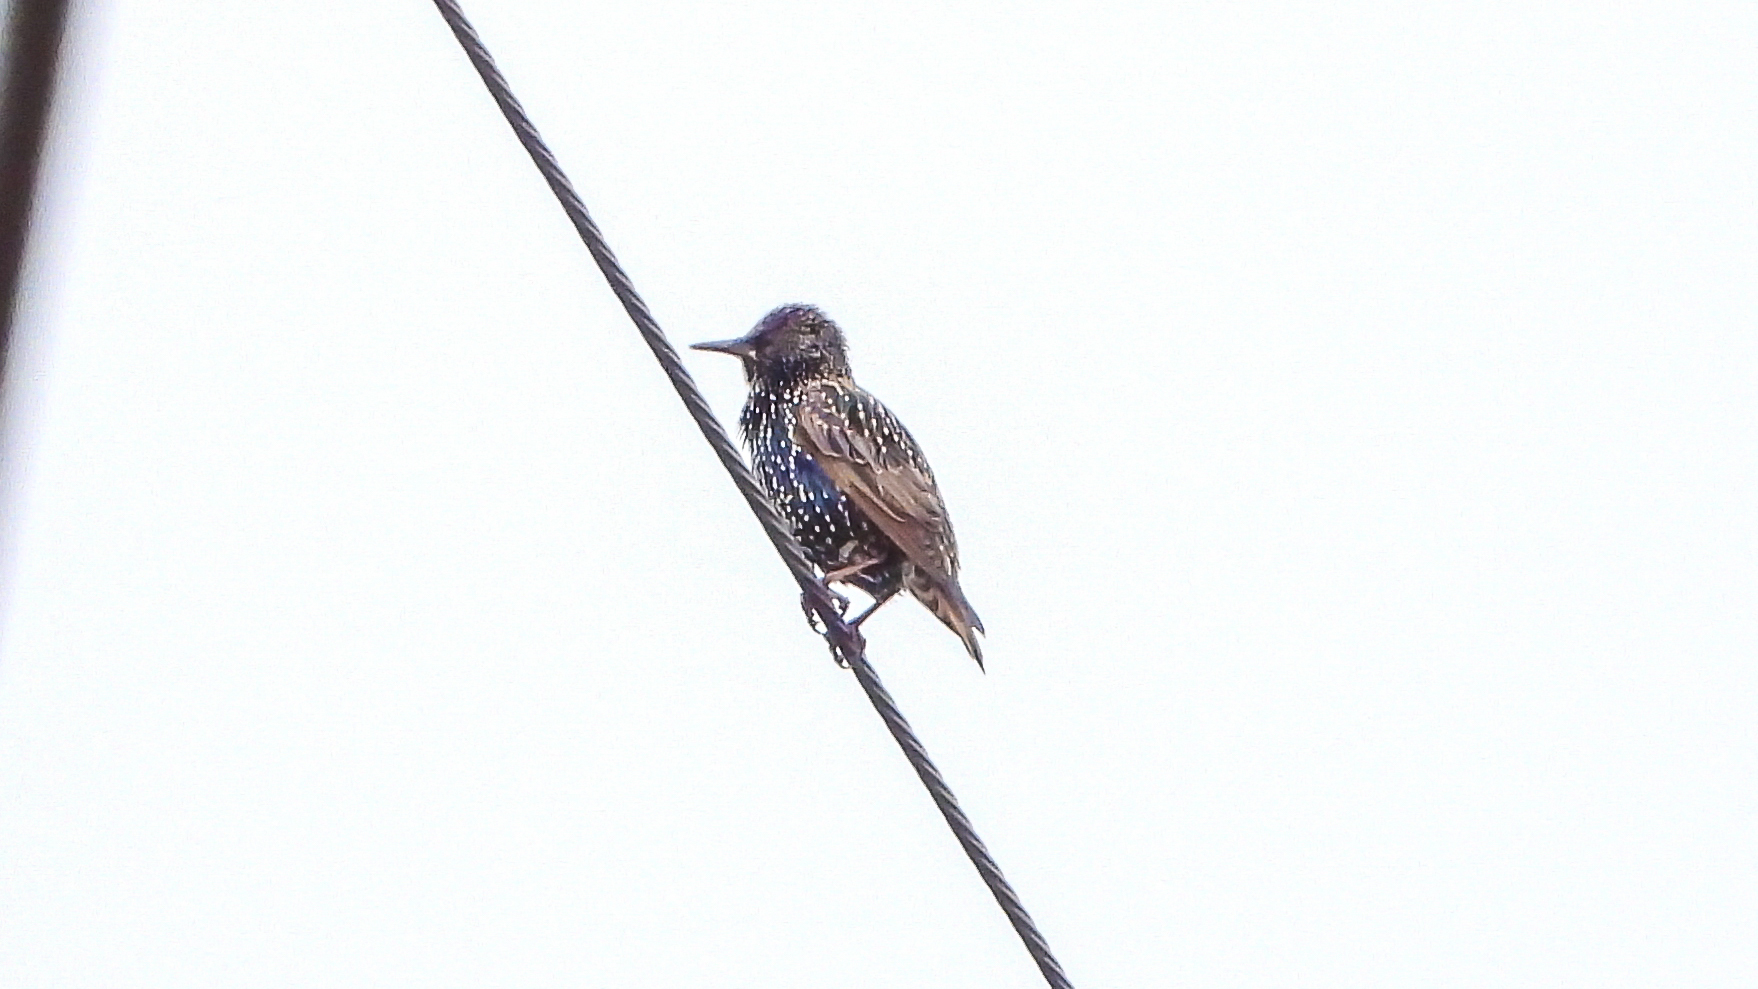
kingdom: Animalia
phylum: Chordata
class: Aves
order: Passeriformes
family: Sturnidae
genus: Sturnus
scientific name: Sturnus vulgaris
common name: Common starling
